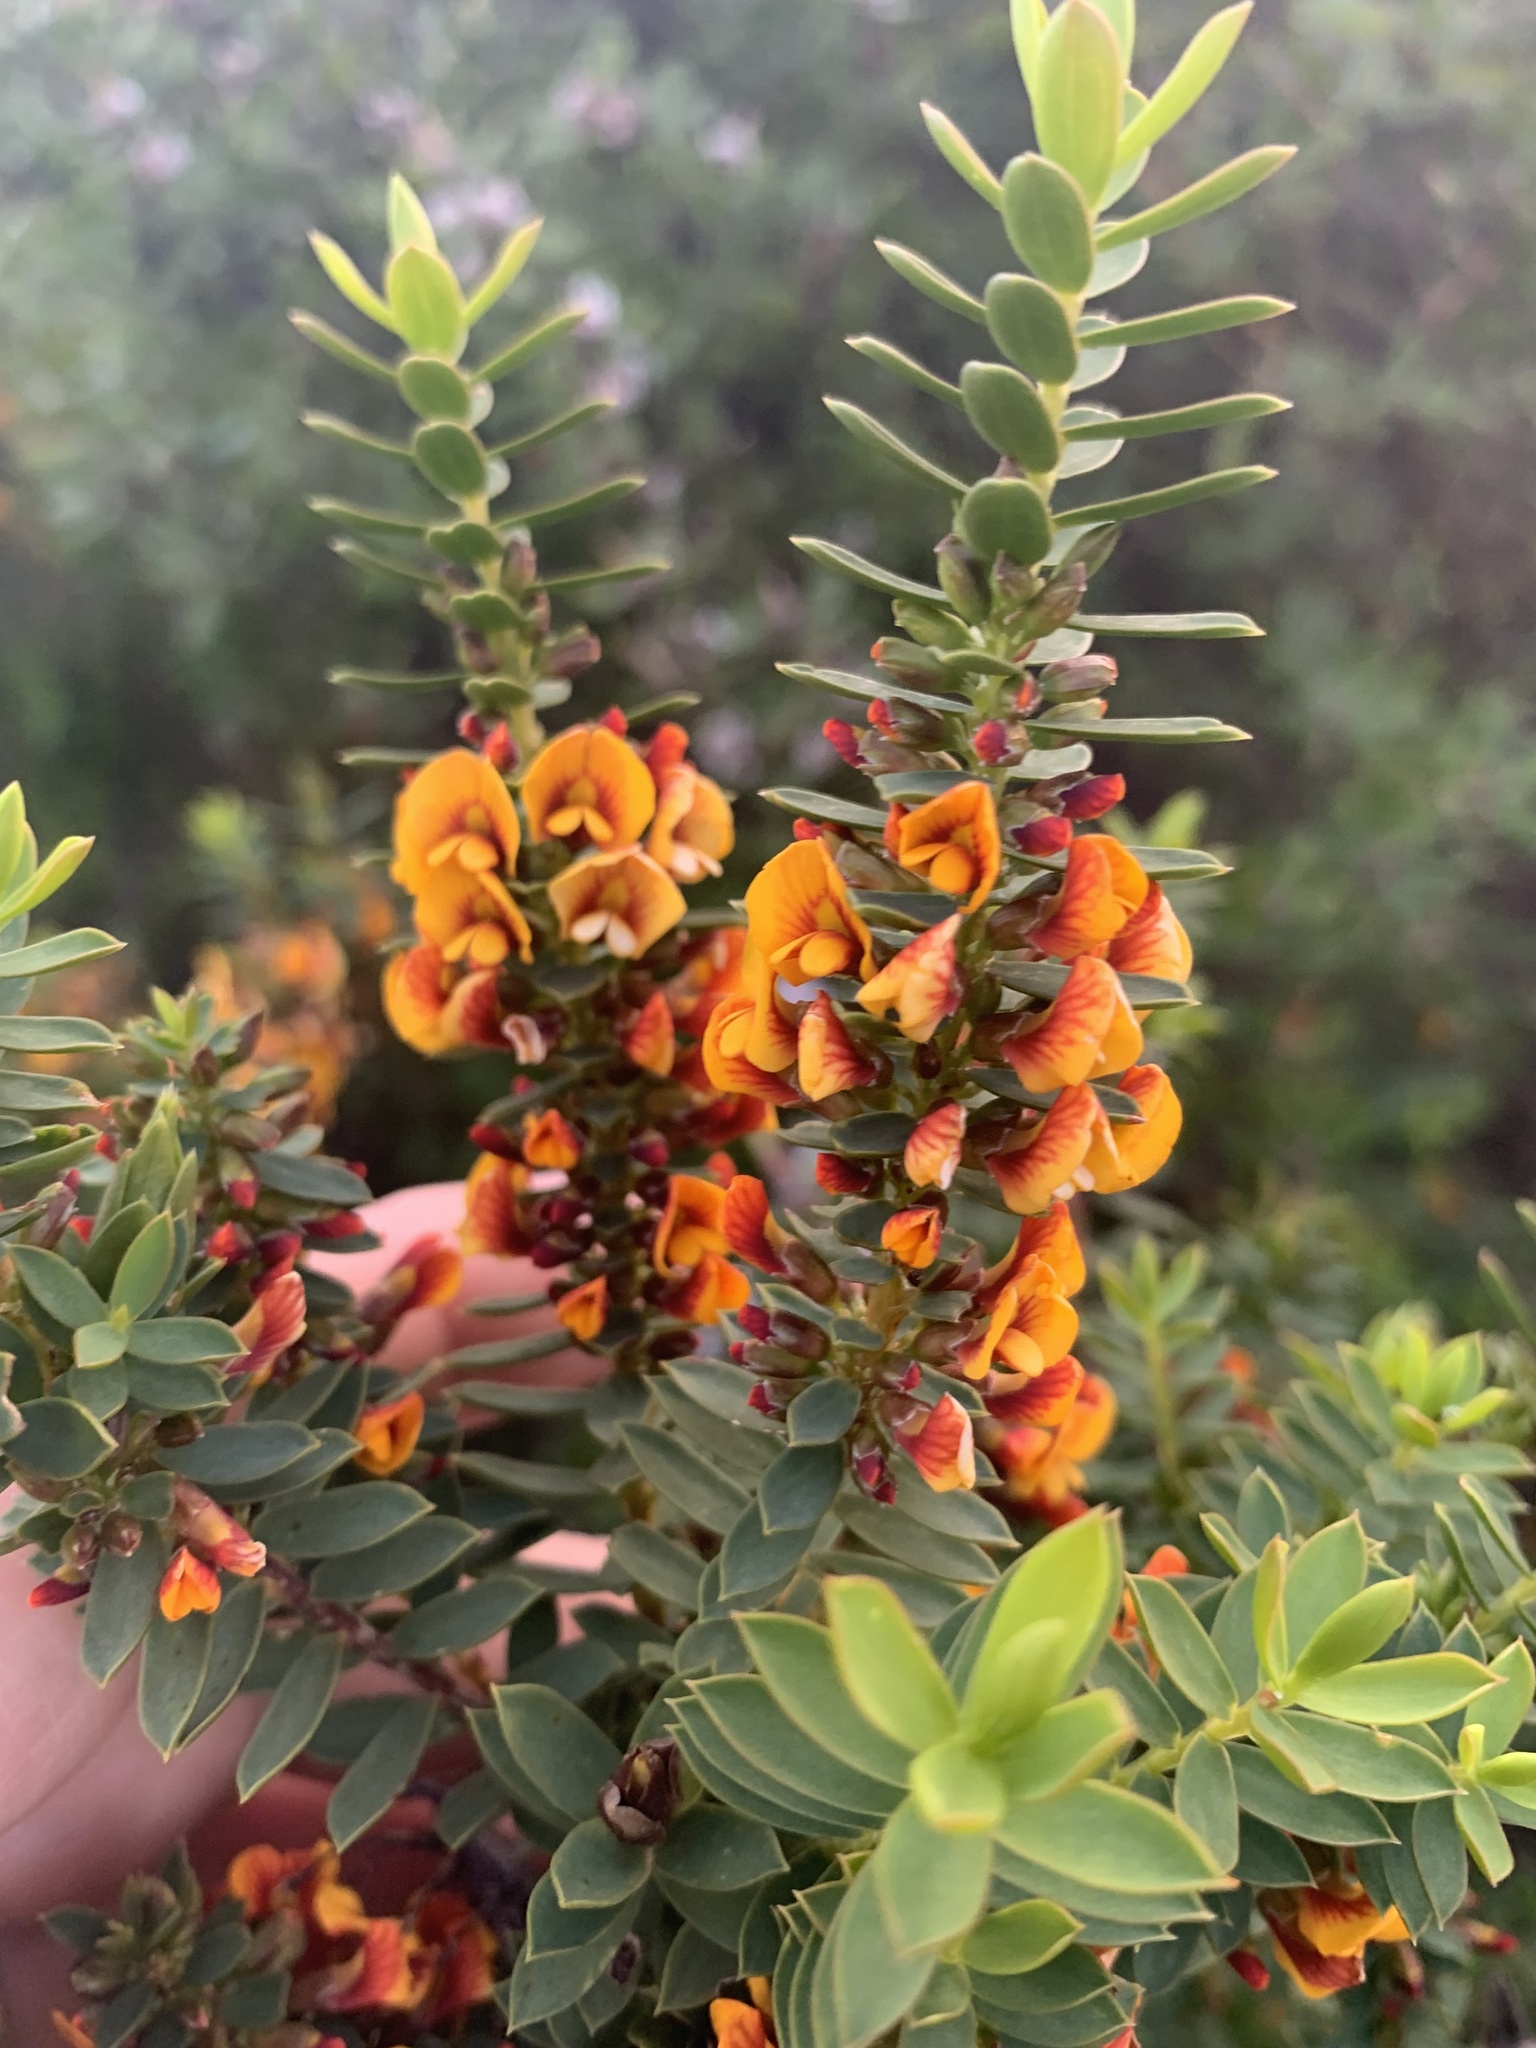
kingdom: Plantae
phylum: Tracheophyta
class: Magnoliopsida
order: Fabales
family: Fabaceae
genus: Eutaxia
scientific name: Eutaxia myrtifolia
